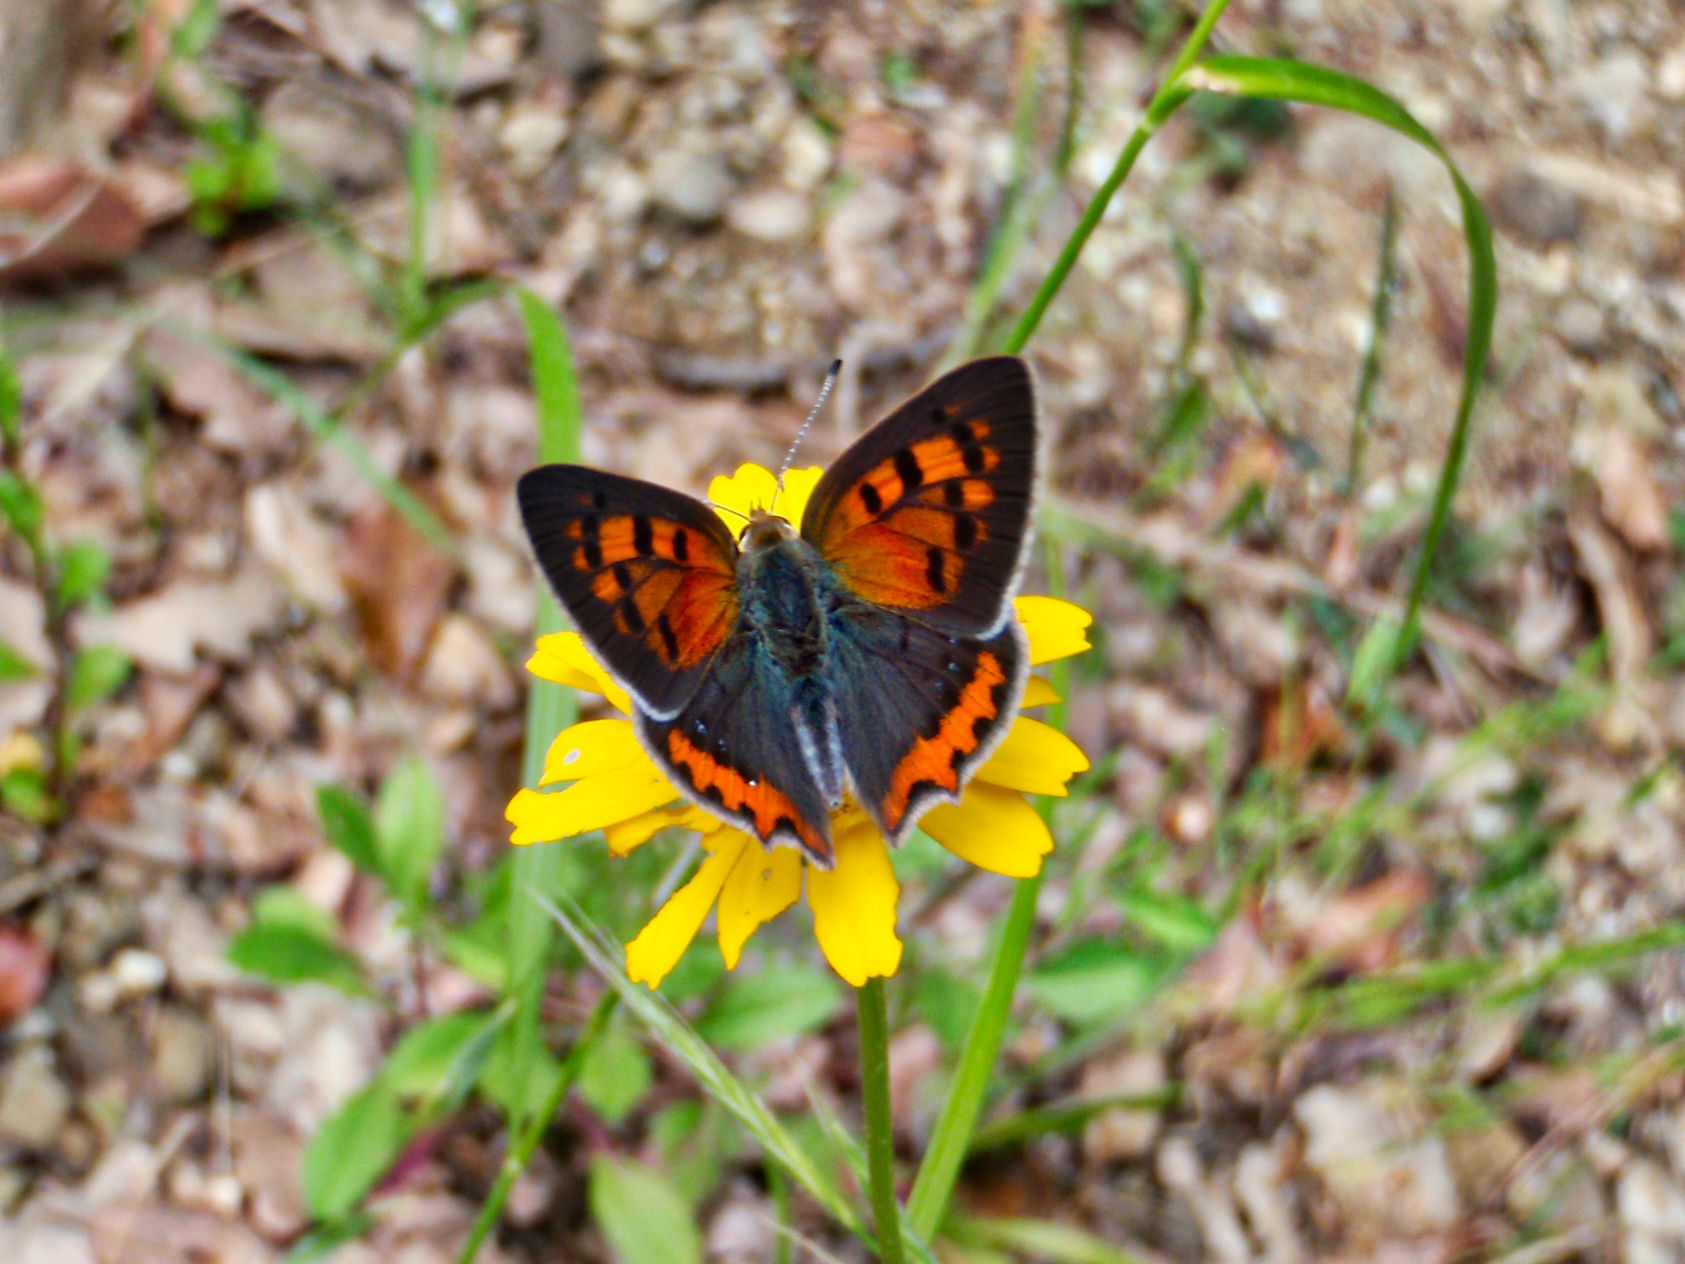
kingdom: Animalia
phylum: Arthropoda
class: Insecta
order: Lepidoptera
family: Lycaenidae
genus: Lycaena
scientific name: Lycaena phlaeas
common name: Small copper
